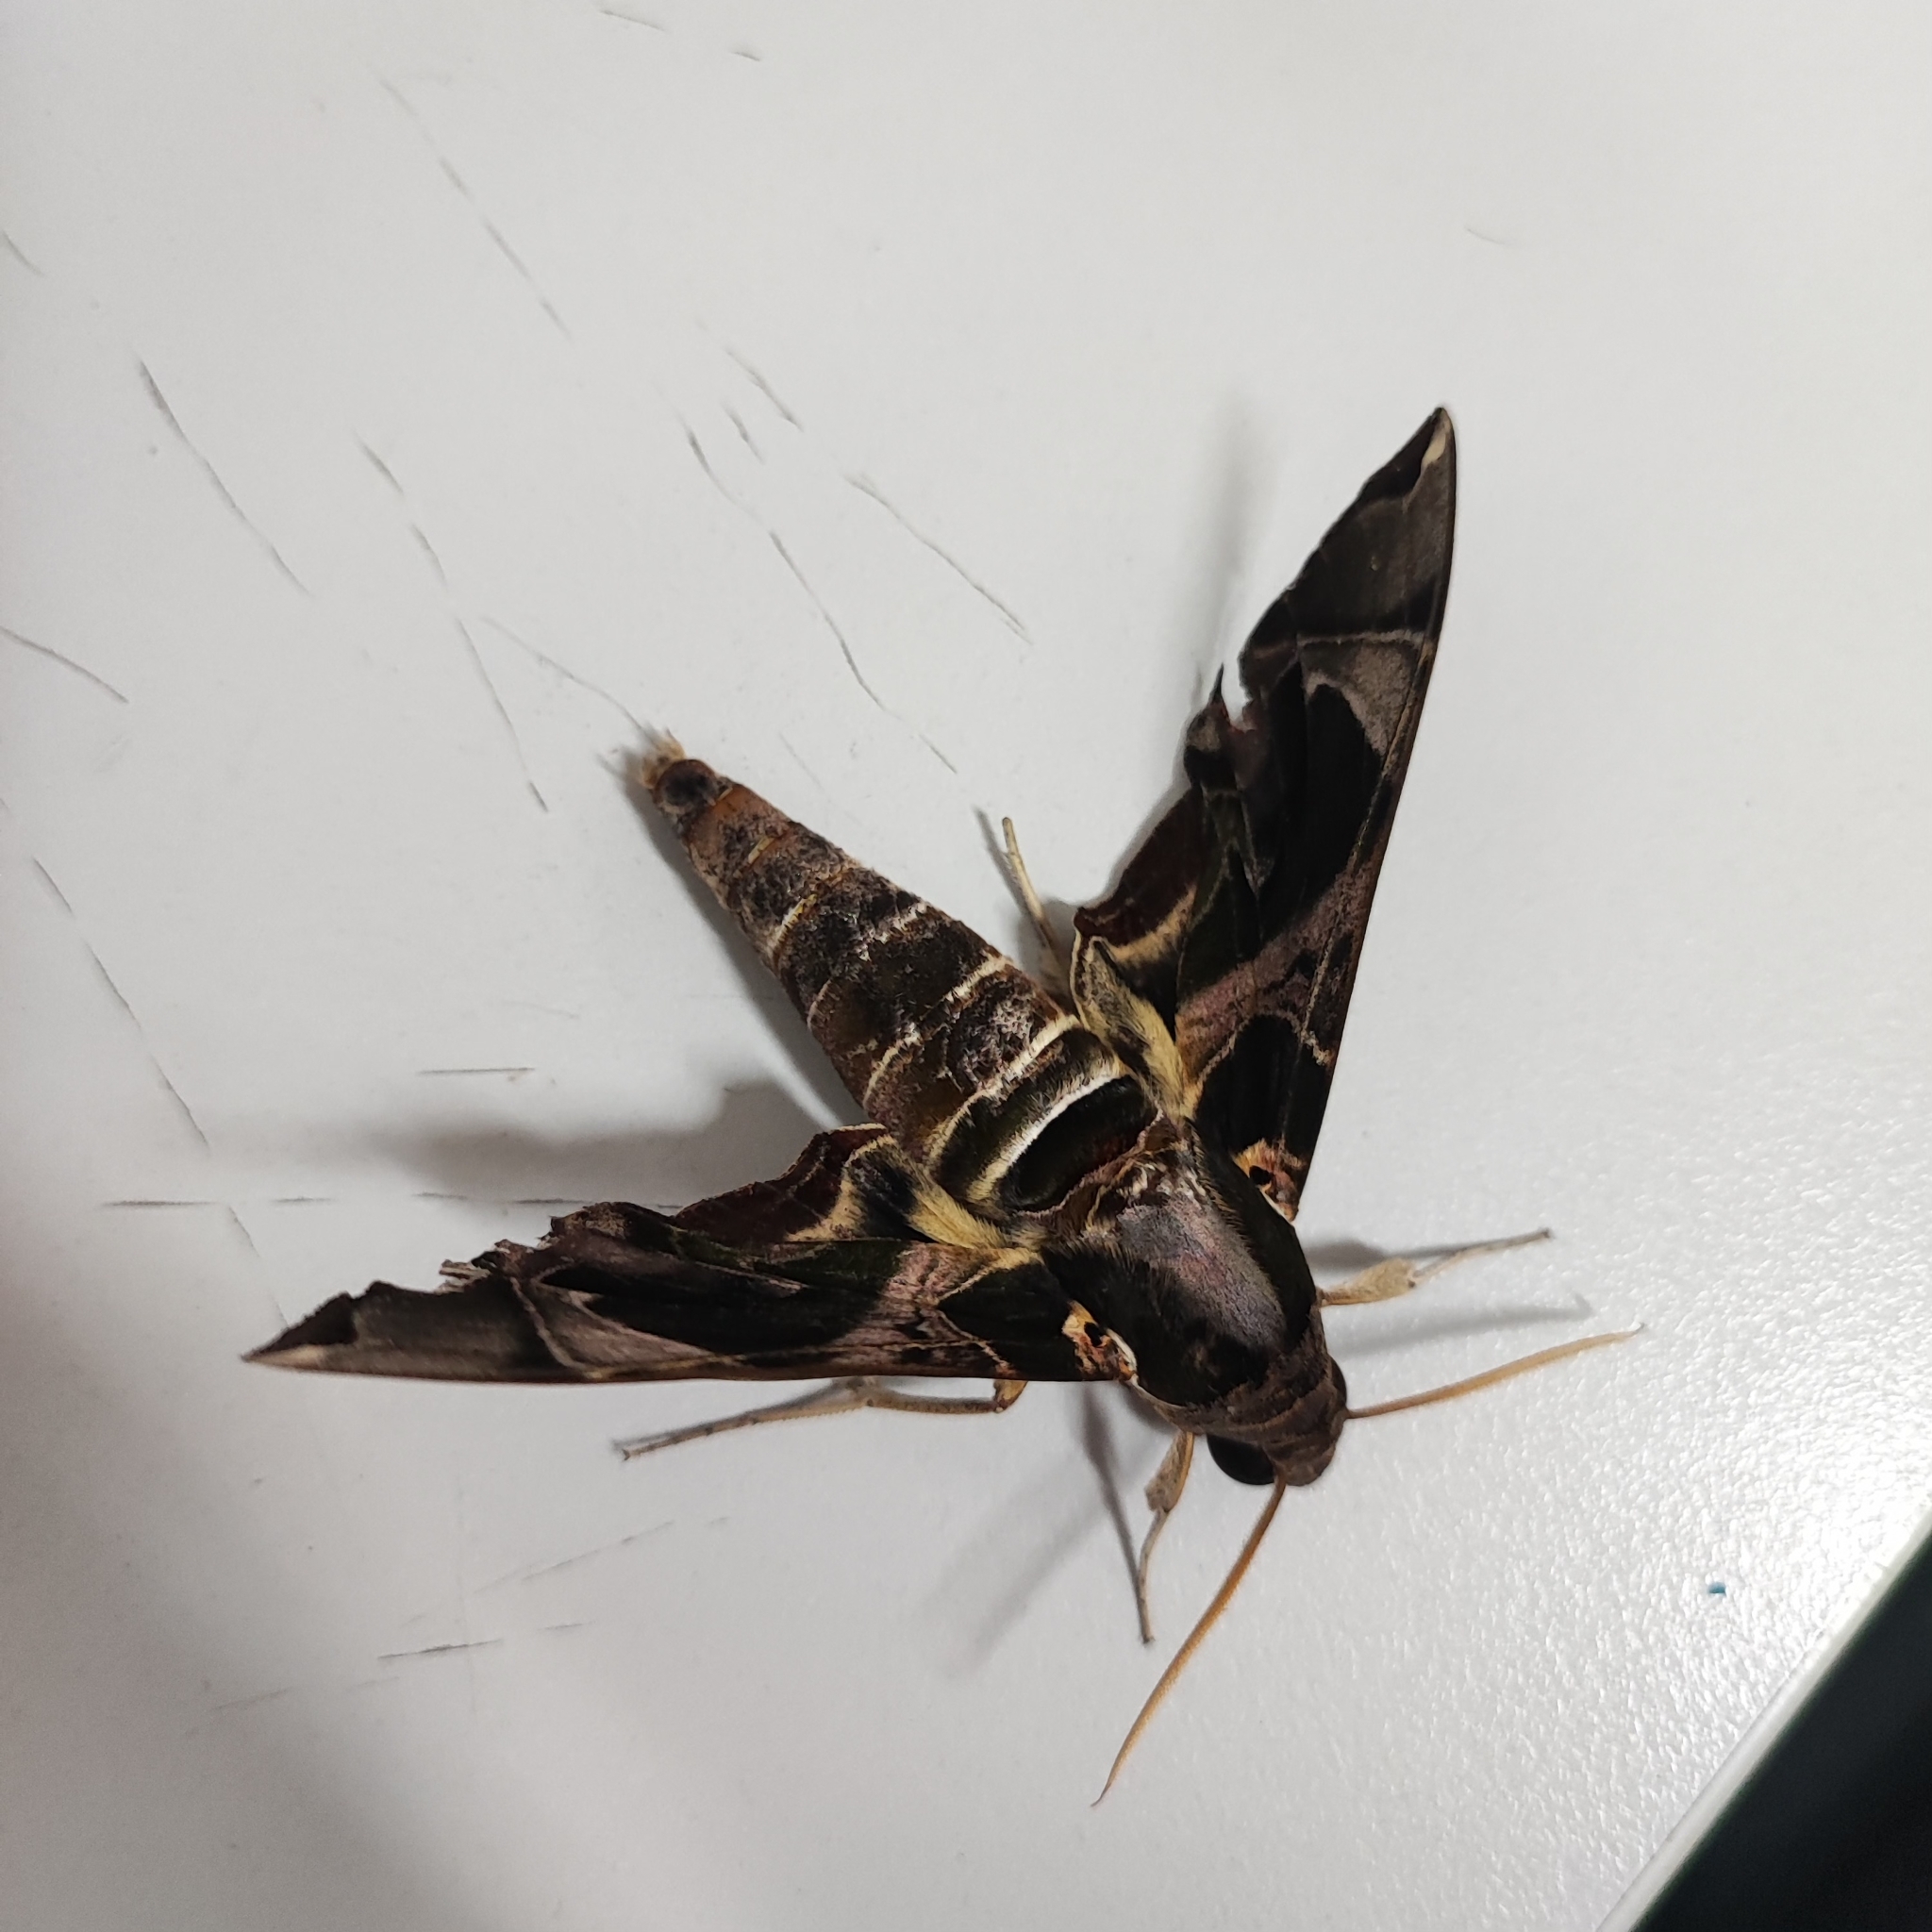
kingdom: Animalia
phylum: Arthropoda
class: Insecta
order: Lepidoptera
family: Sphingidae
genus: Daphnis
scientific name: Daphnis hypothous
